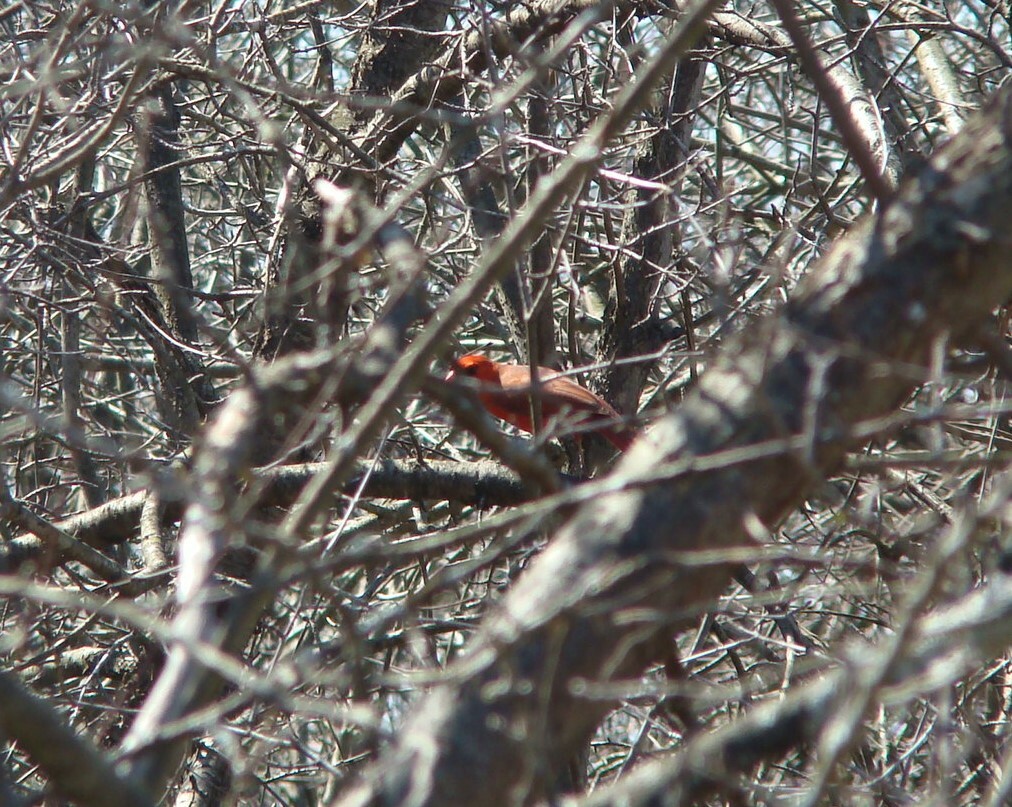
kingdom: Animalia
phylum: Chordata
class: Aves
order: Passeriformes
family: Cardinalidae
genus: Cardinalis
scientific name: Cardinalis cardinalis
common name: Northern cardinal
